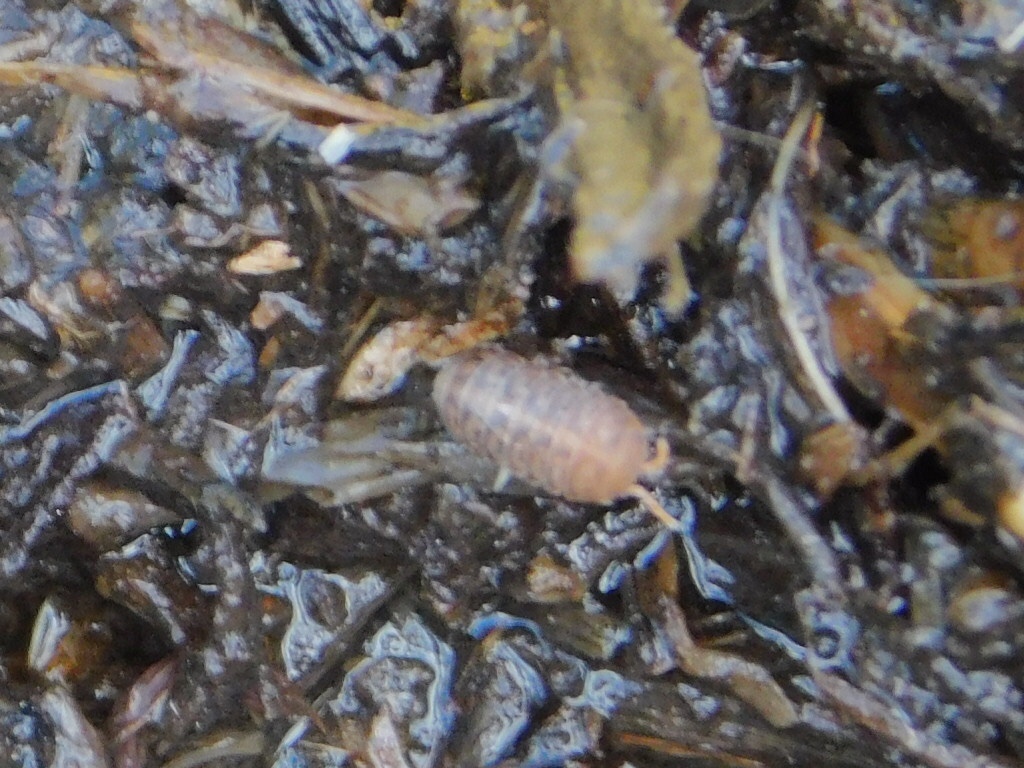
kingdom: Animalia
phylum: Arthropoda
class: Malacostraca
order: Isopoda
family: Armadillidae
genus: Venezillo
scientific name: Venezillo parvus
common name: Pillbug
